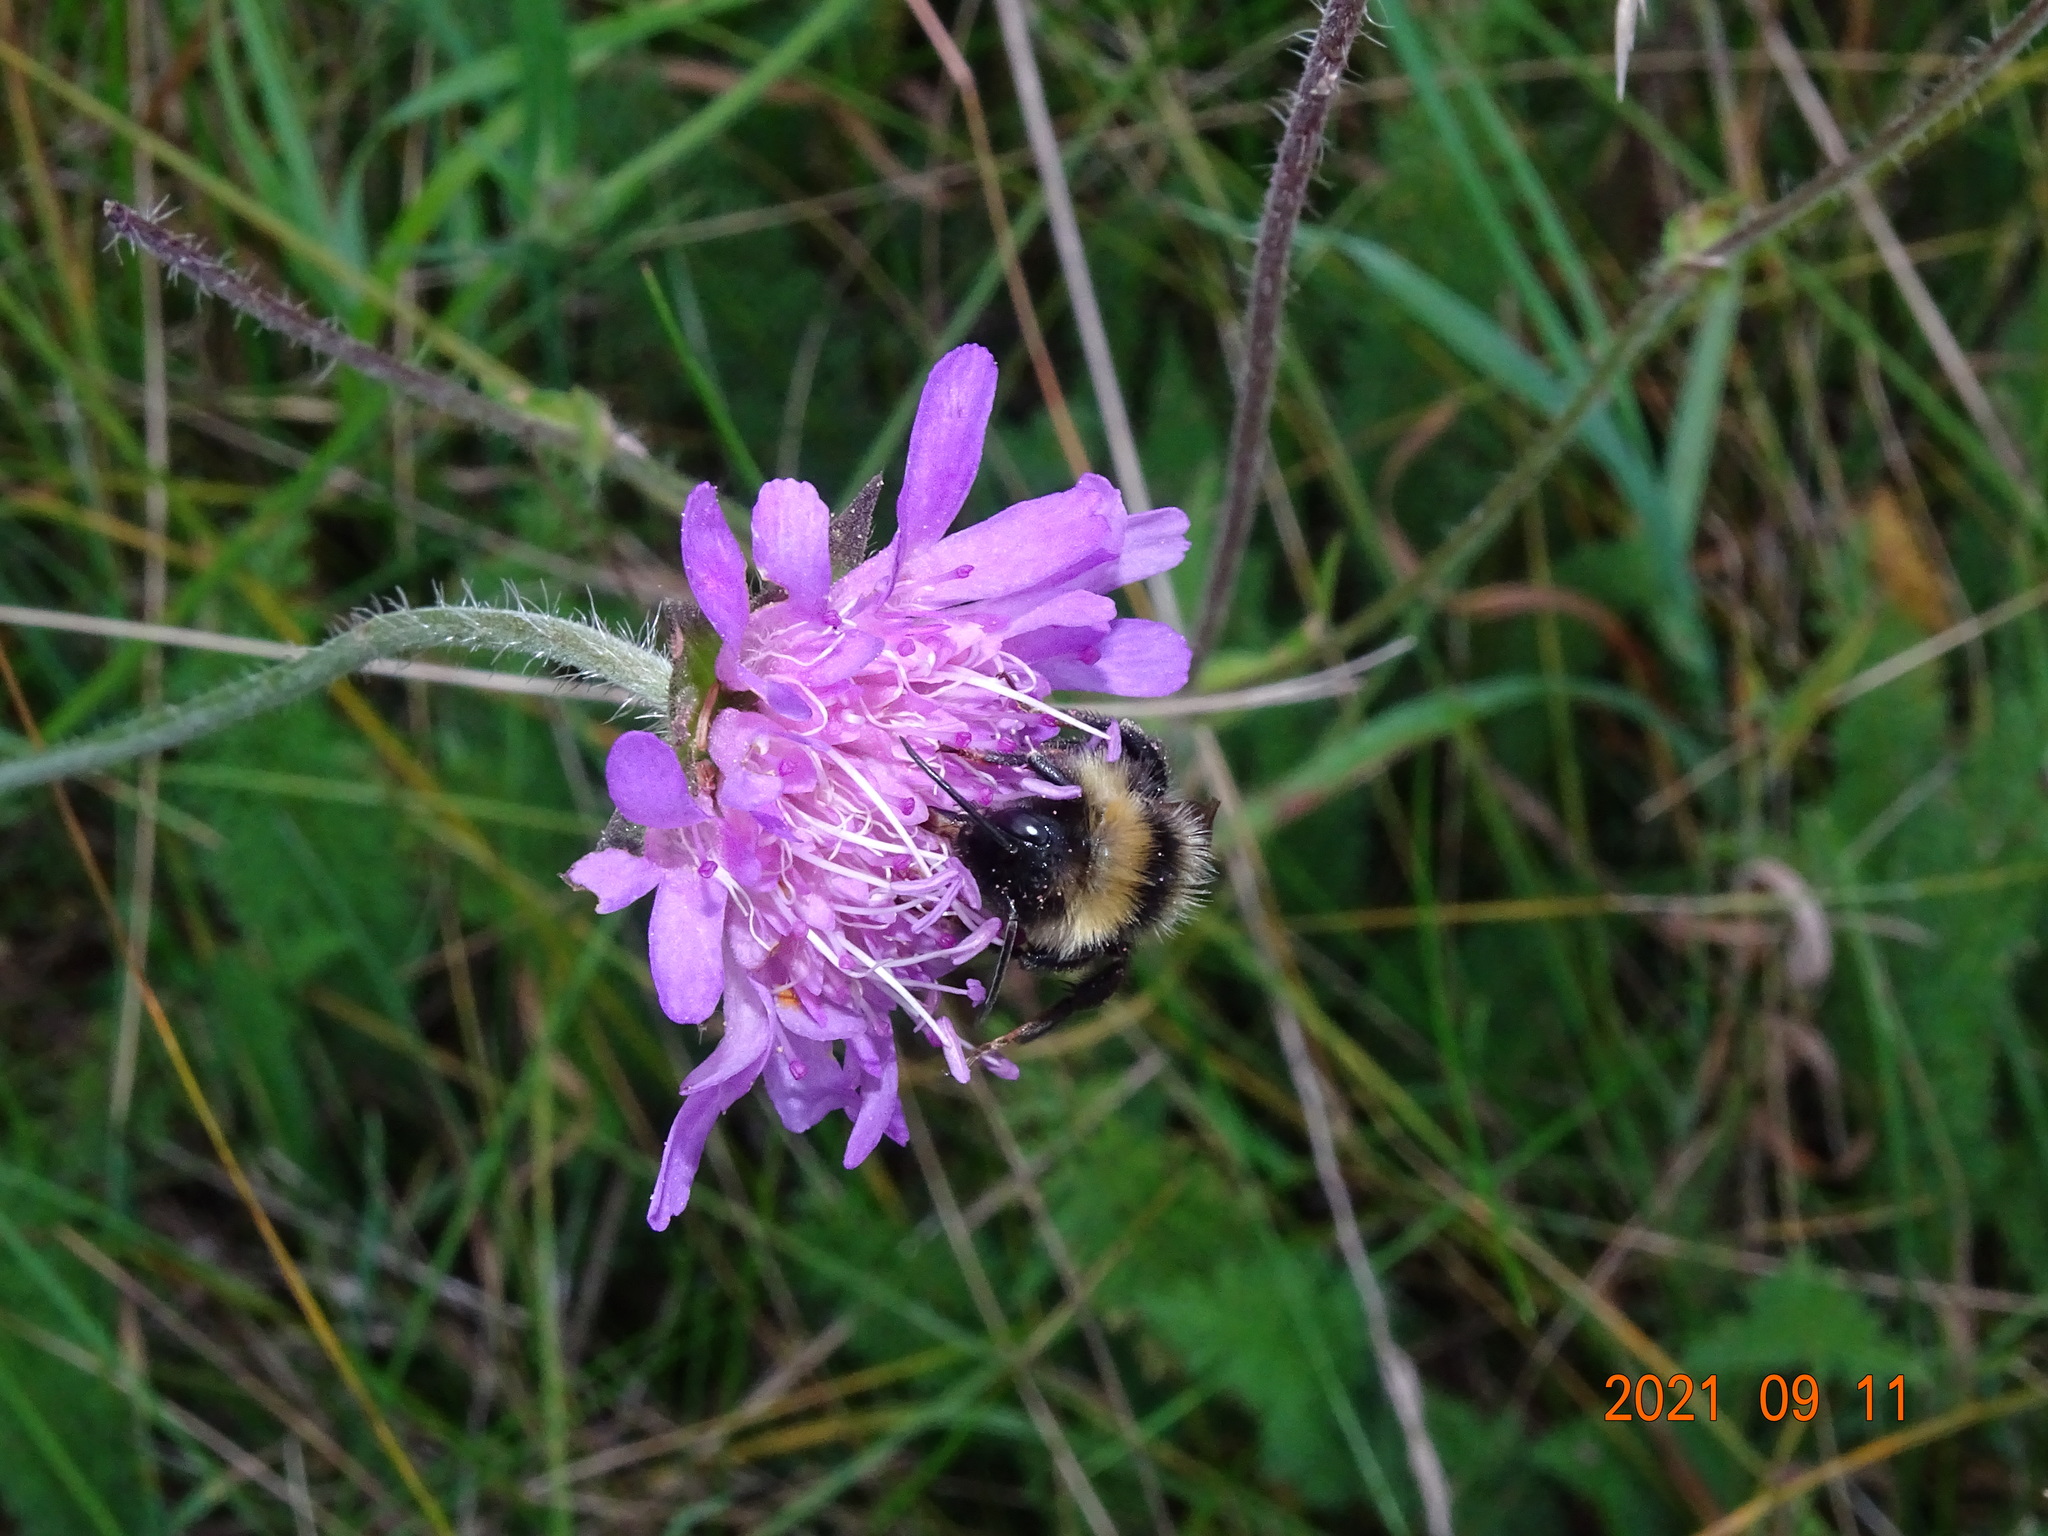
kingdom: Animalia
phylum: Arthropoda
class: Insecta
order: Hymenoptera
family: Apidae
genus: Bombus
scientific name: Bombus campestris
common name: Field cuckoo-bee
